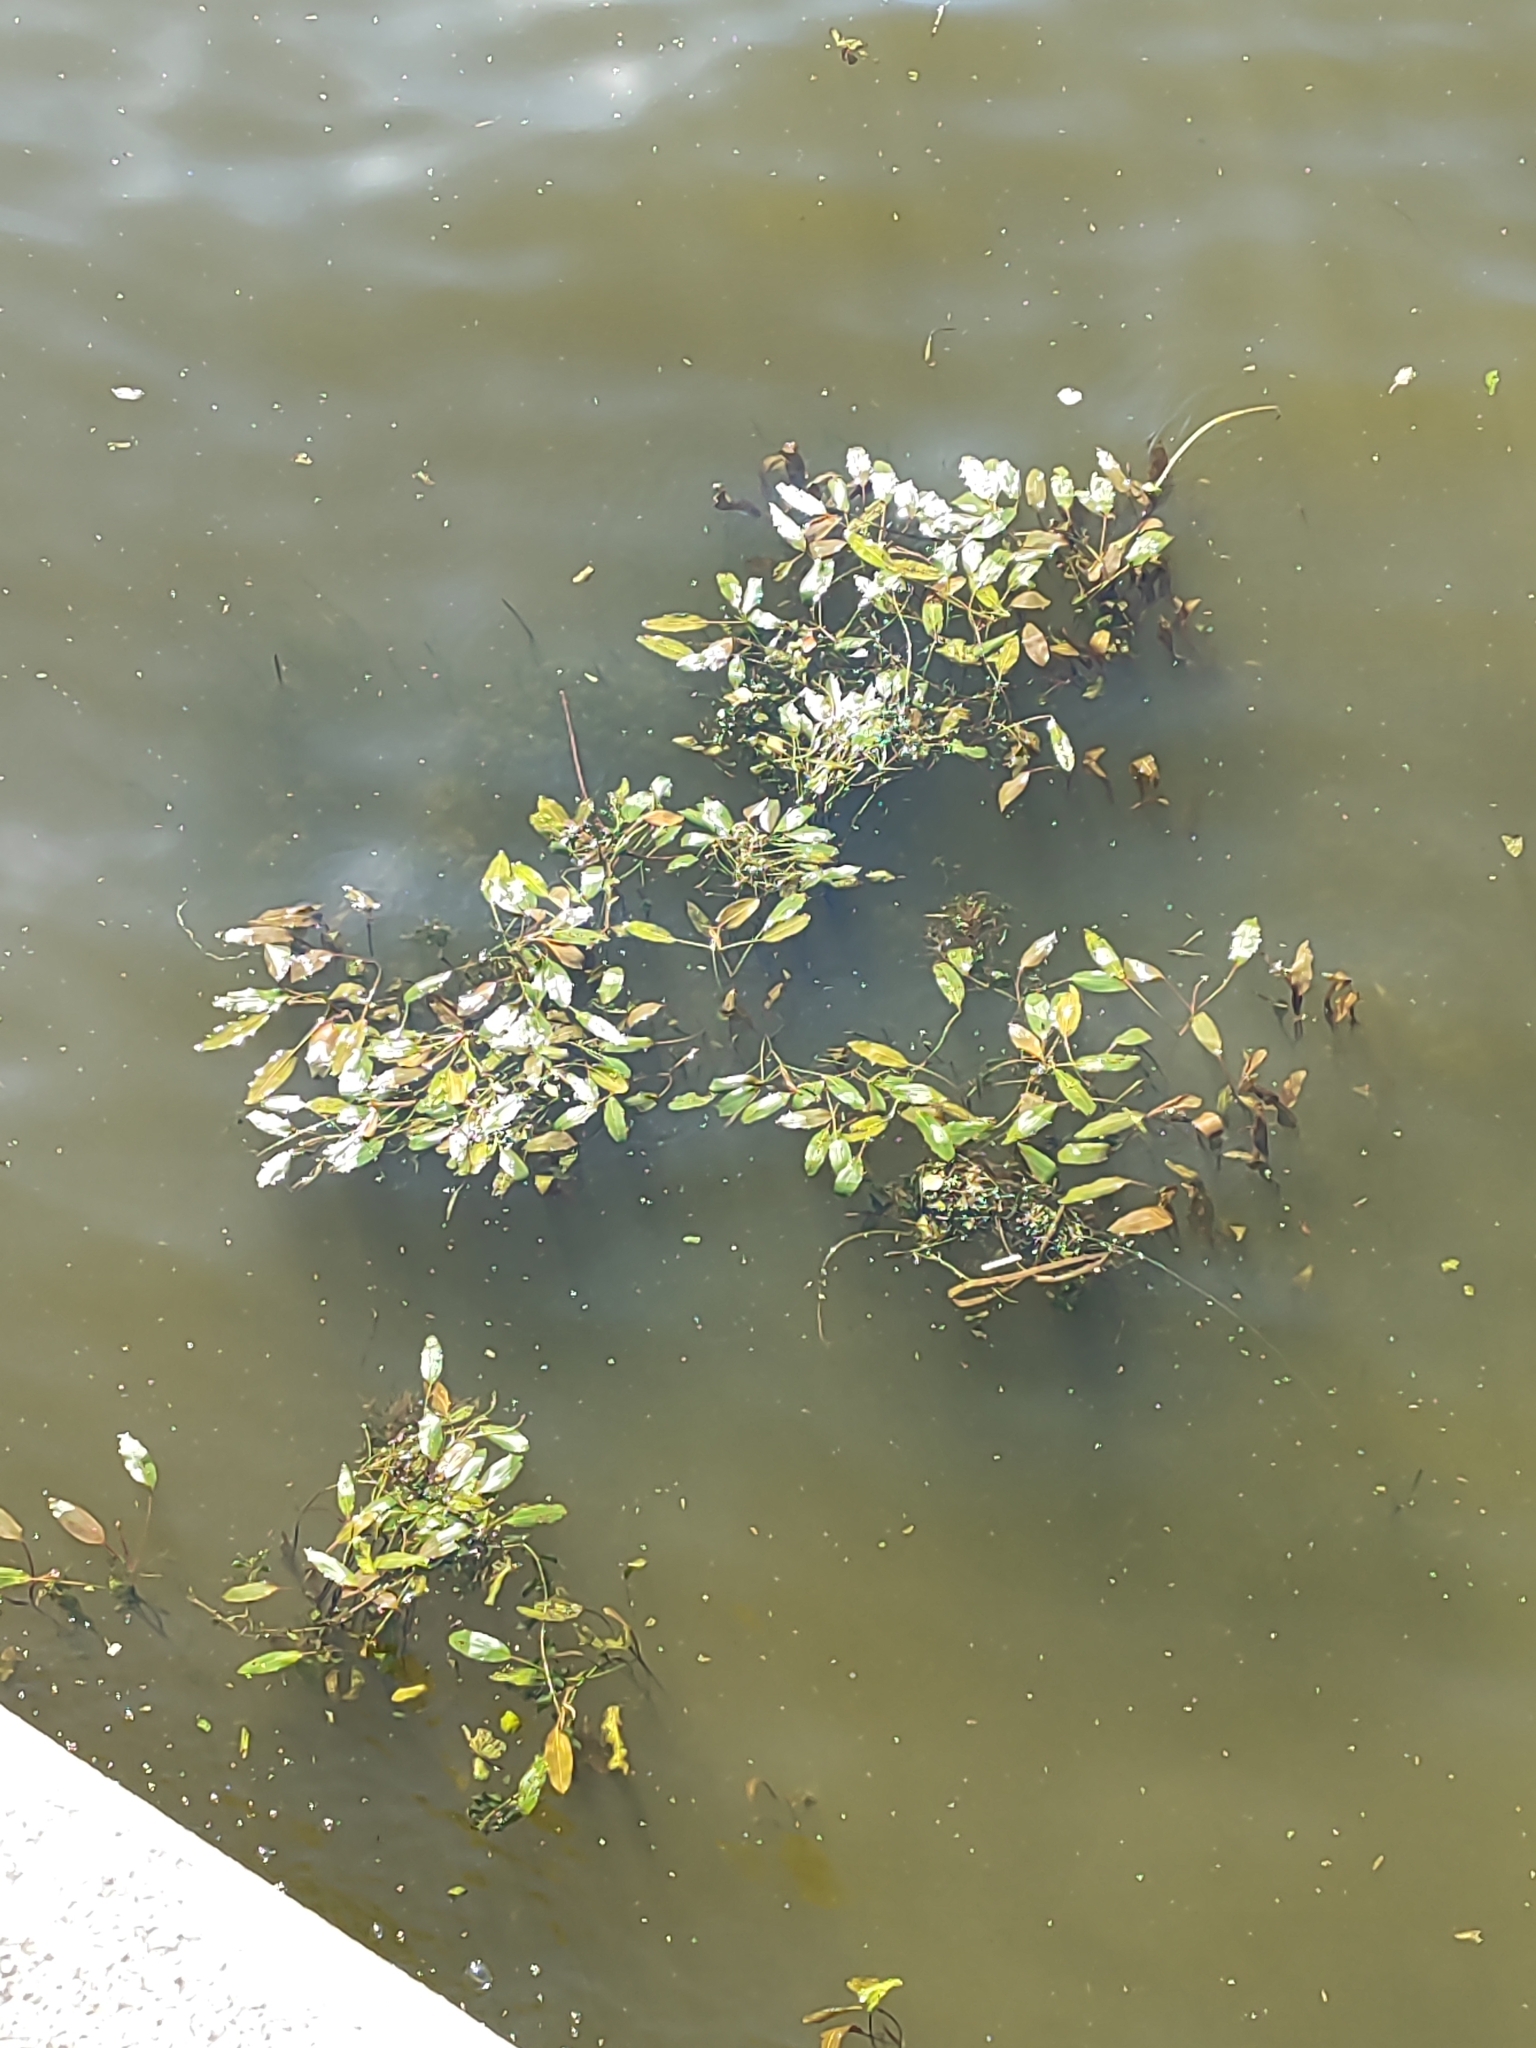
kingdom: Plantae
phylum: Tracheophyta
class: Liliopsida
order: Alismatales
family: Potamogetonaceae
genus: Potamogeton
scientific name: Potamogeton nodosus
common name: Loddon pondweed
